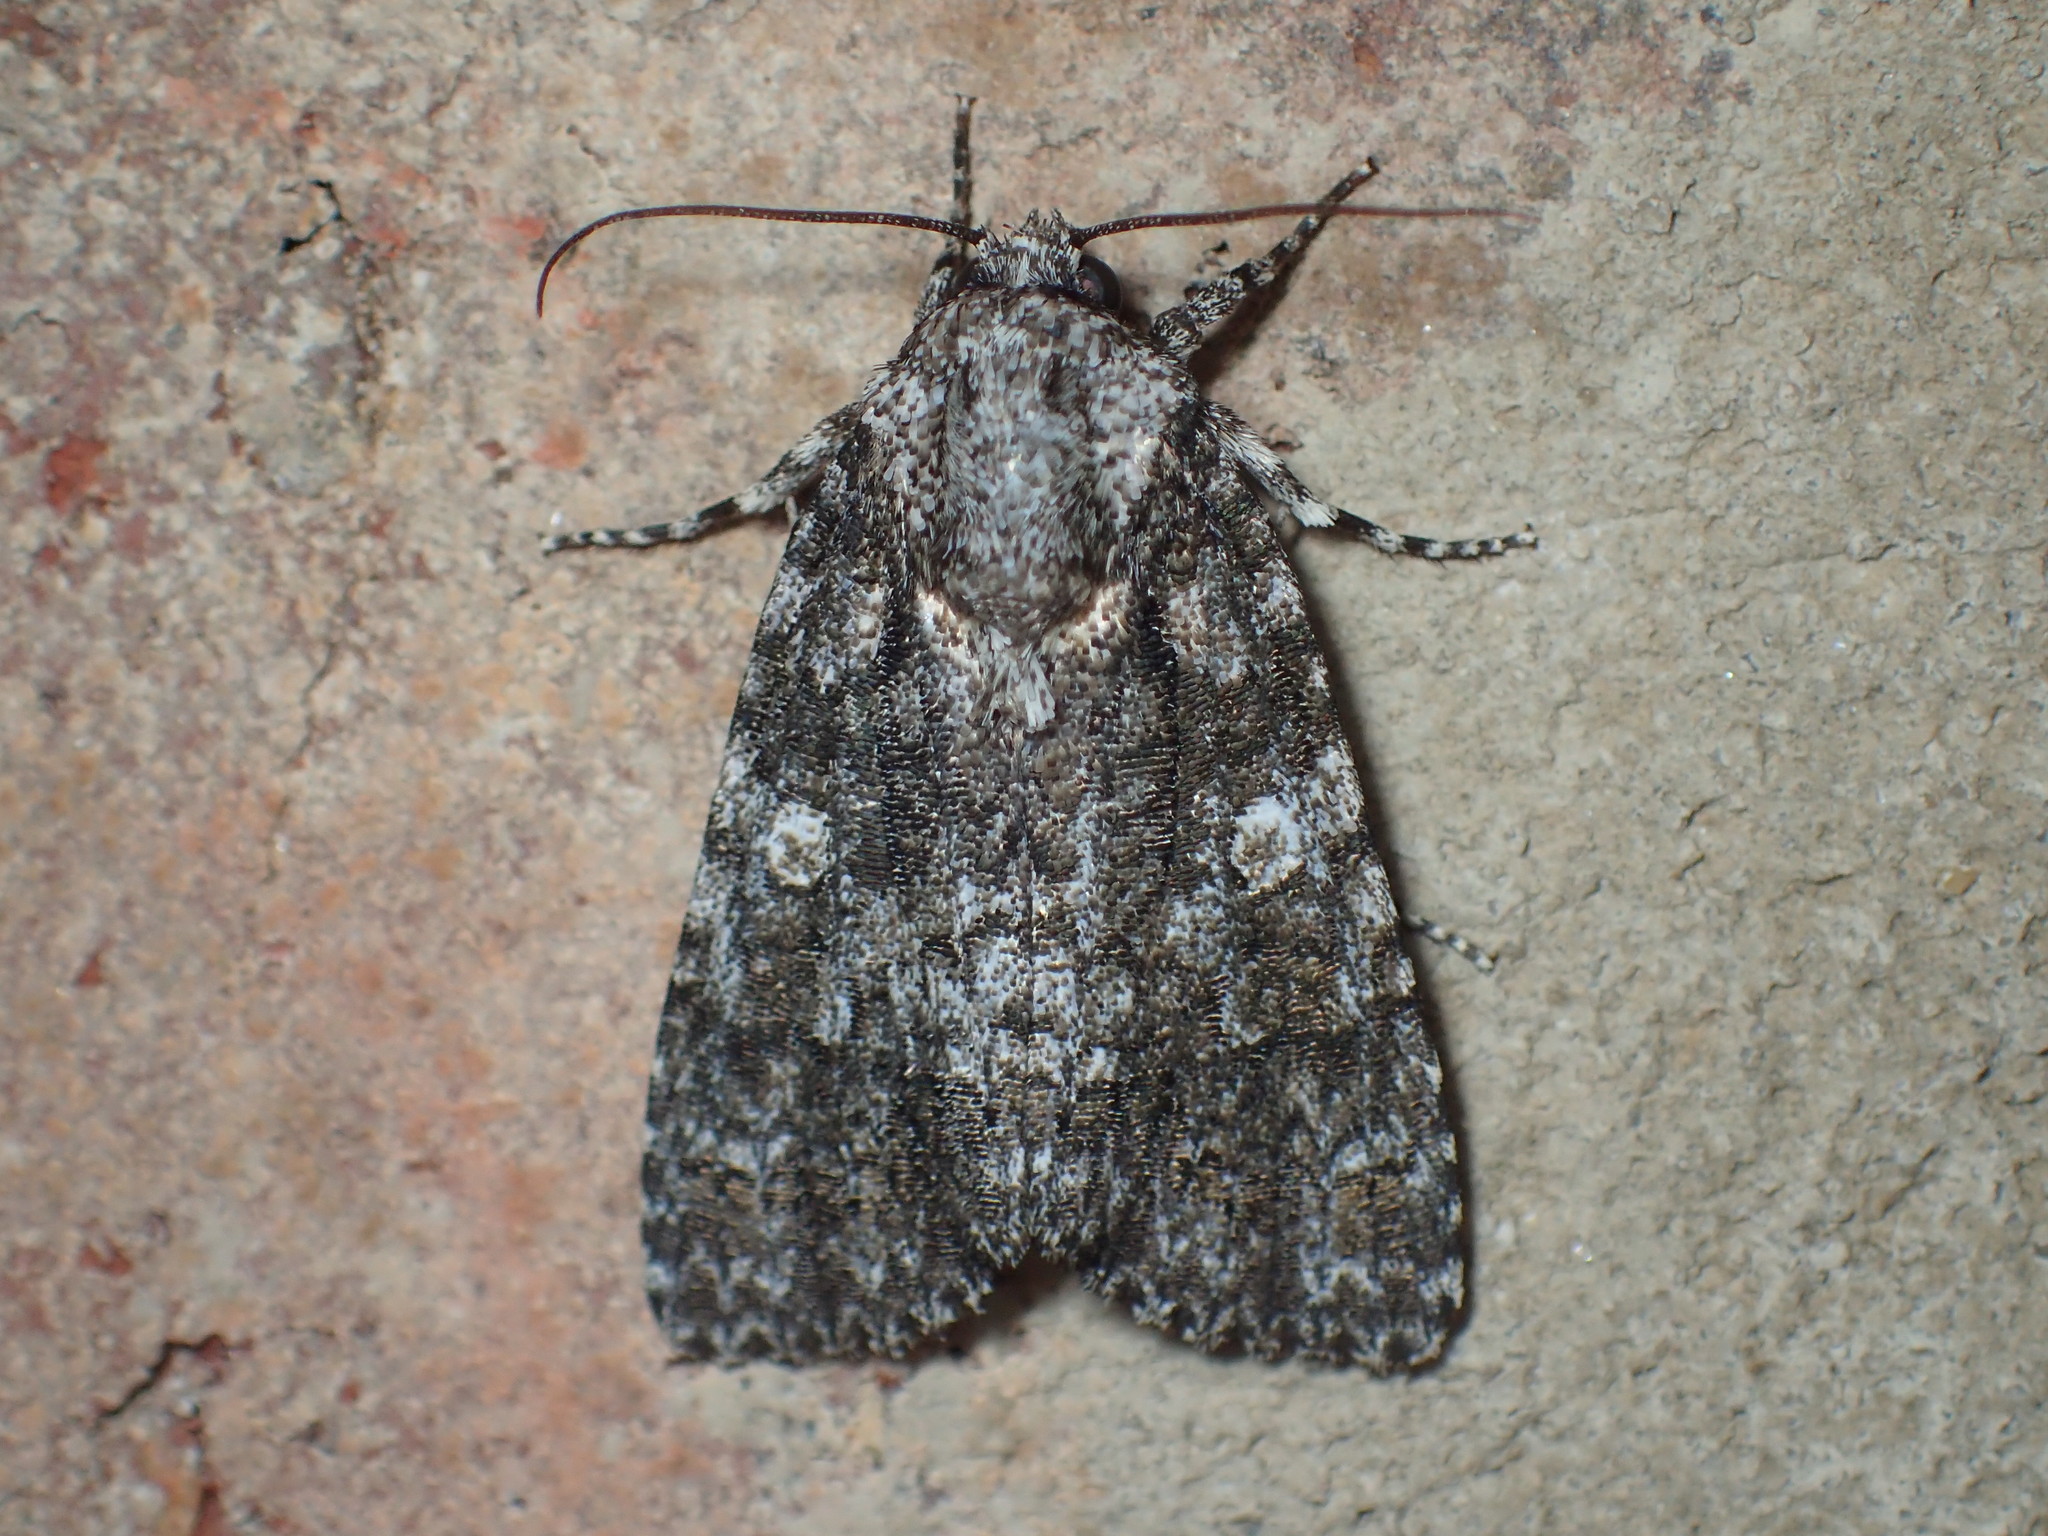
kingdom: Animalia
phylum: Arthropoda
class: Insecta
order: Lepidoptera
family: Noctuidae
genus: Acronicta
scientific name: Acronicta afflicta
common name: Afflicted dagger moth
